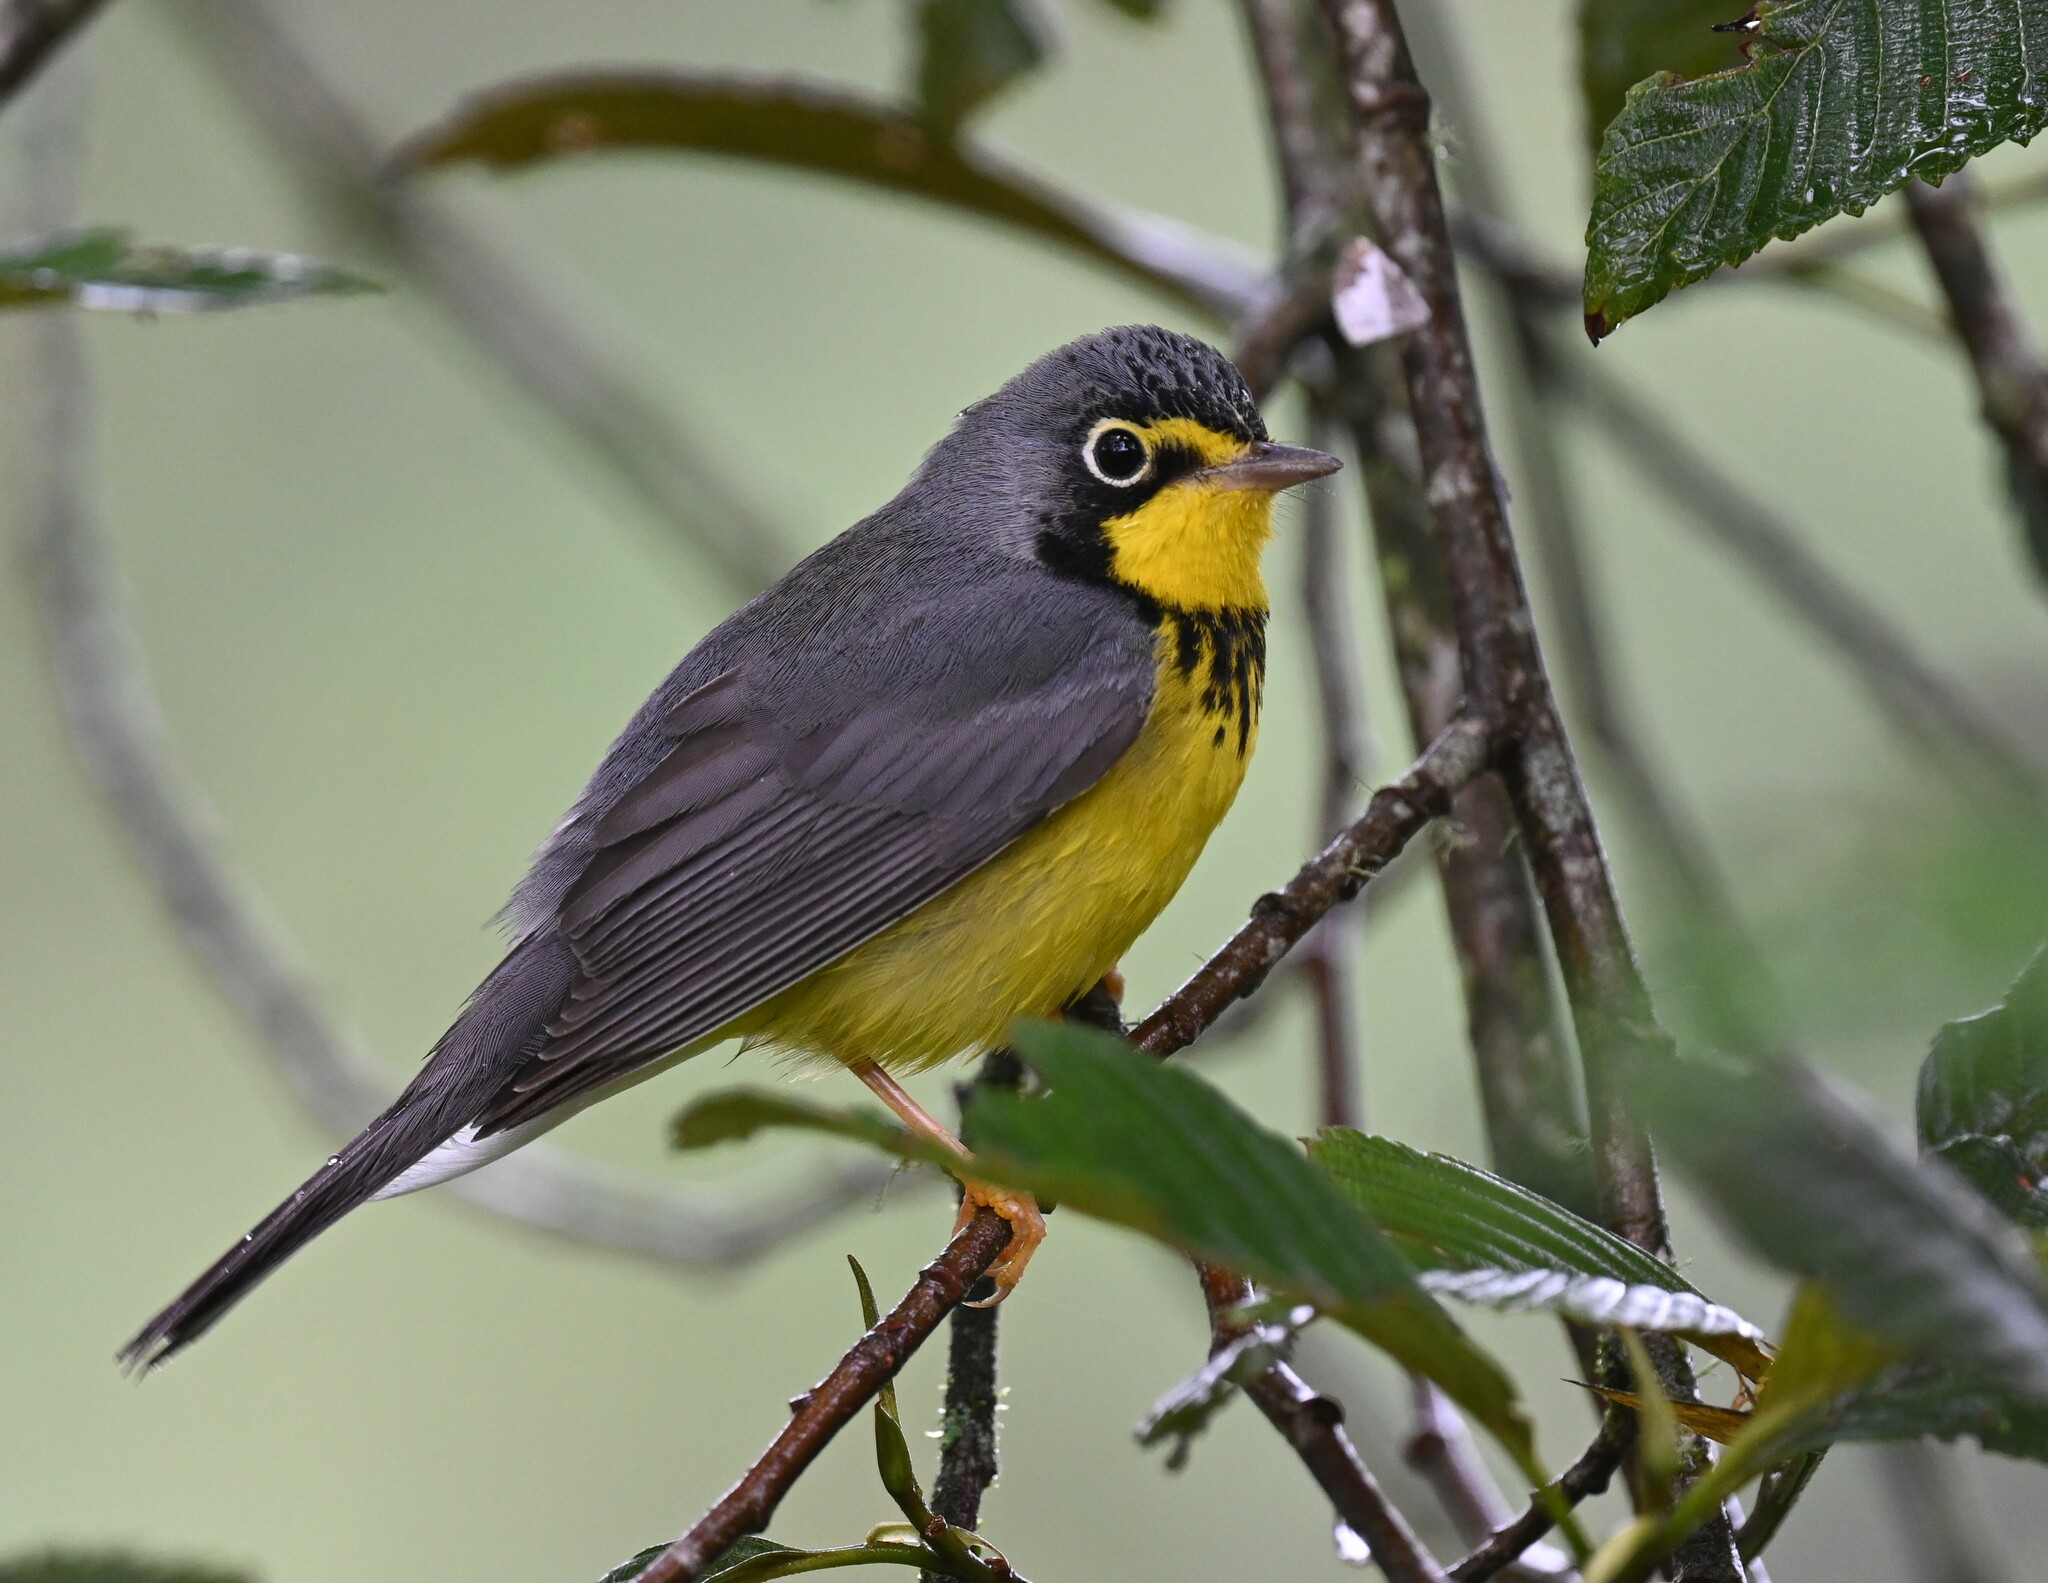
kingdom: Animalia
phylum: Chordata
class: Aves
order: Passeriformes
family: Parulidae
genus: Cardellina
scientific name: Cardellina canadensis
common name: Canada warbler
